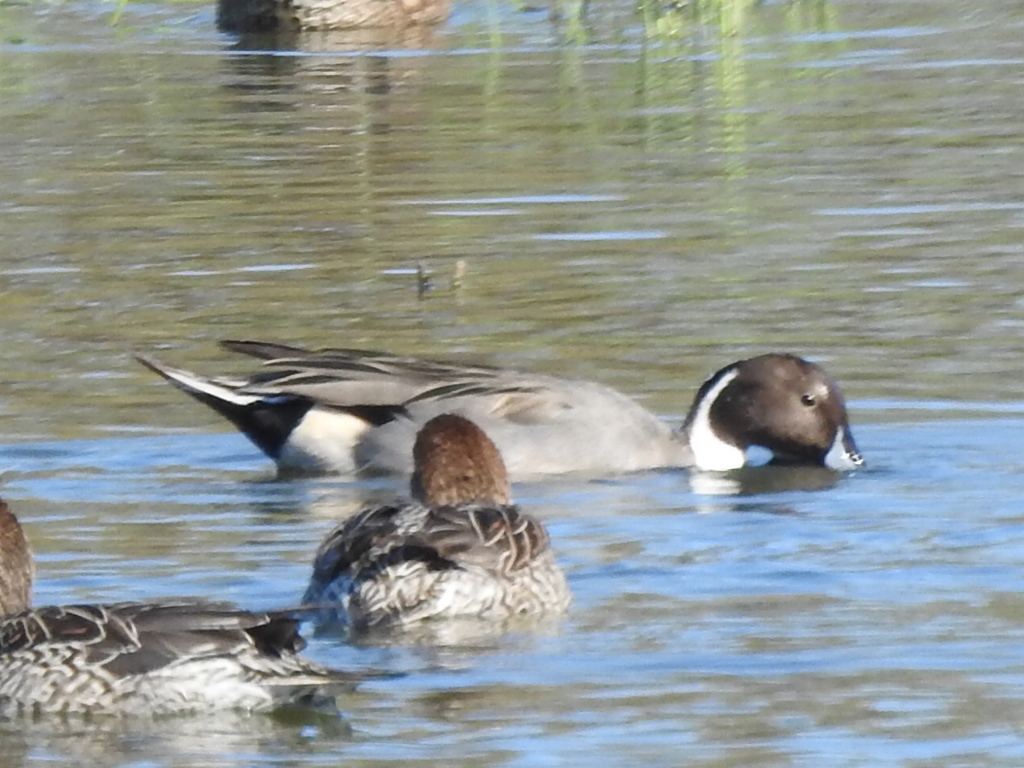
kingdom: Animalia
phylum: Chordata
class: Aves
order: Anseriformes
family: Anatidae
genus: Anas
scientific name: Anas acuta
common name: Northern pintail
